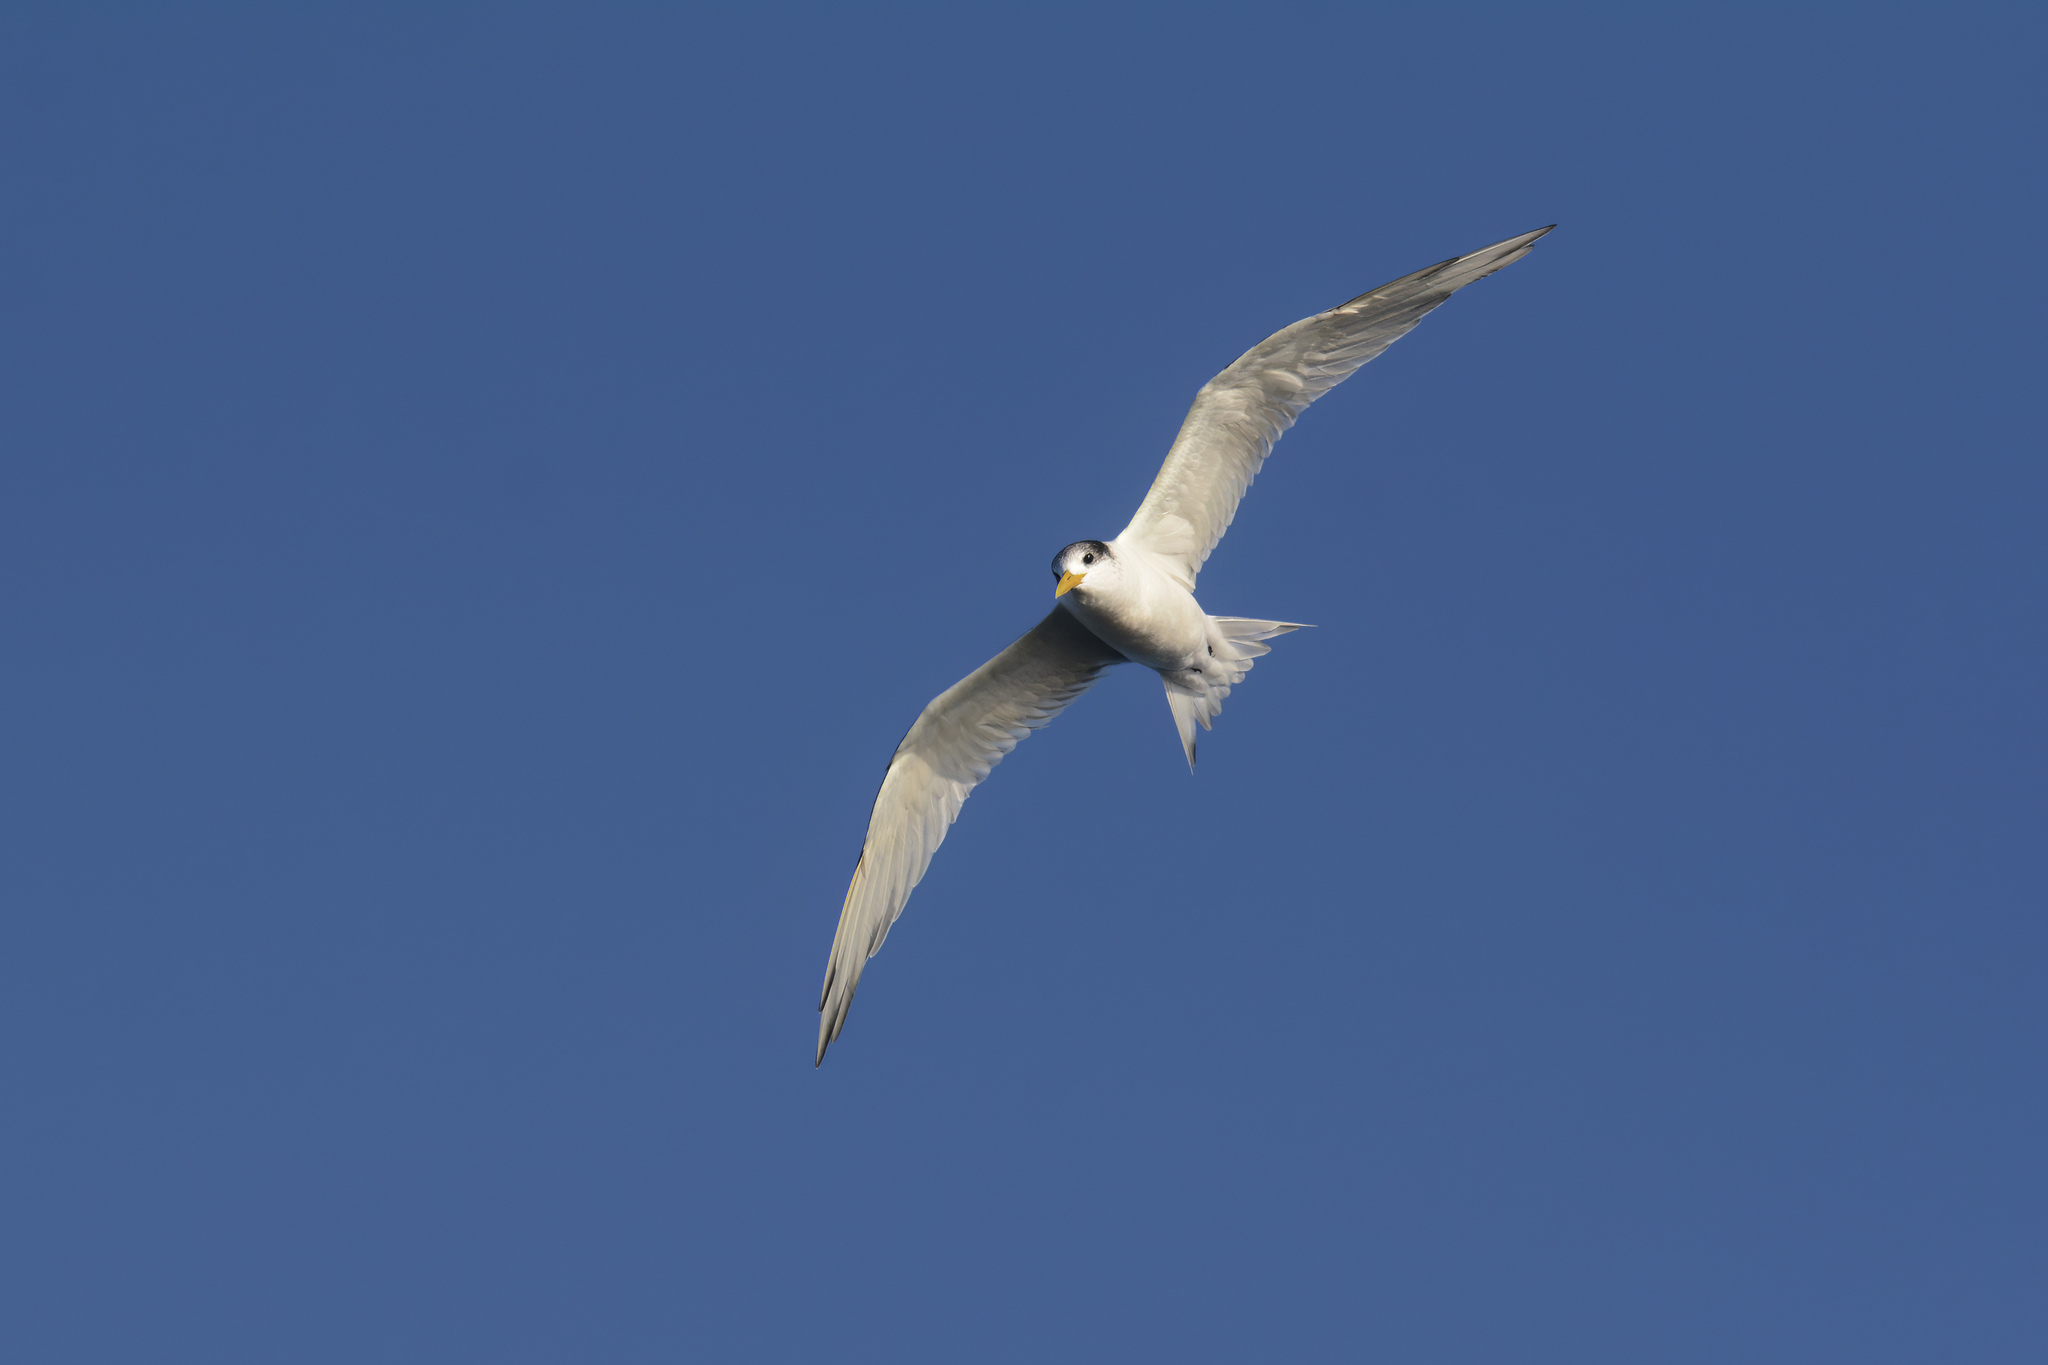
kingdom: Animalia
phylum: Chordata
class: Aves
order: Charadriiformes
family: Laridae
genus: Thalasseus
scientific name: Thalasseus bergii
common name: Greater crested tern
